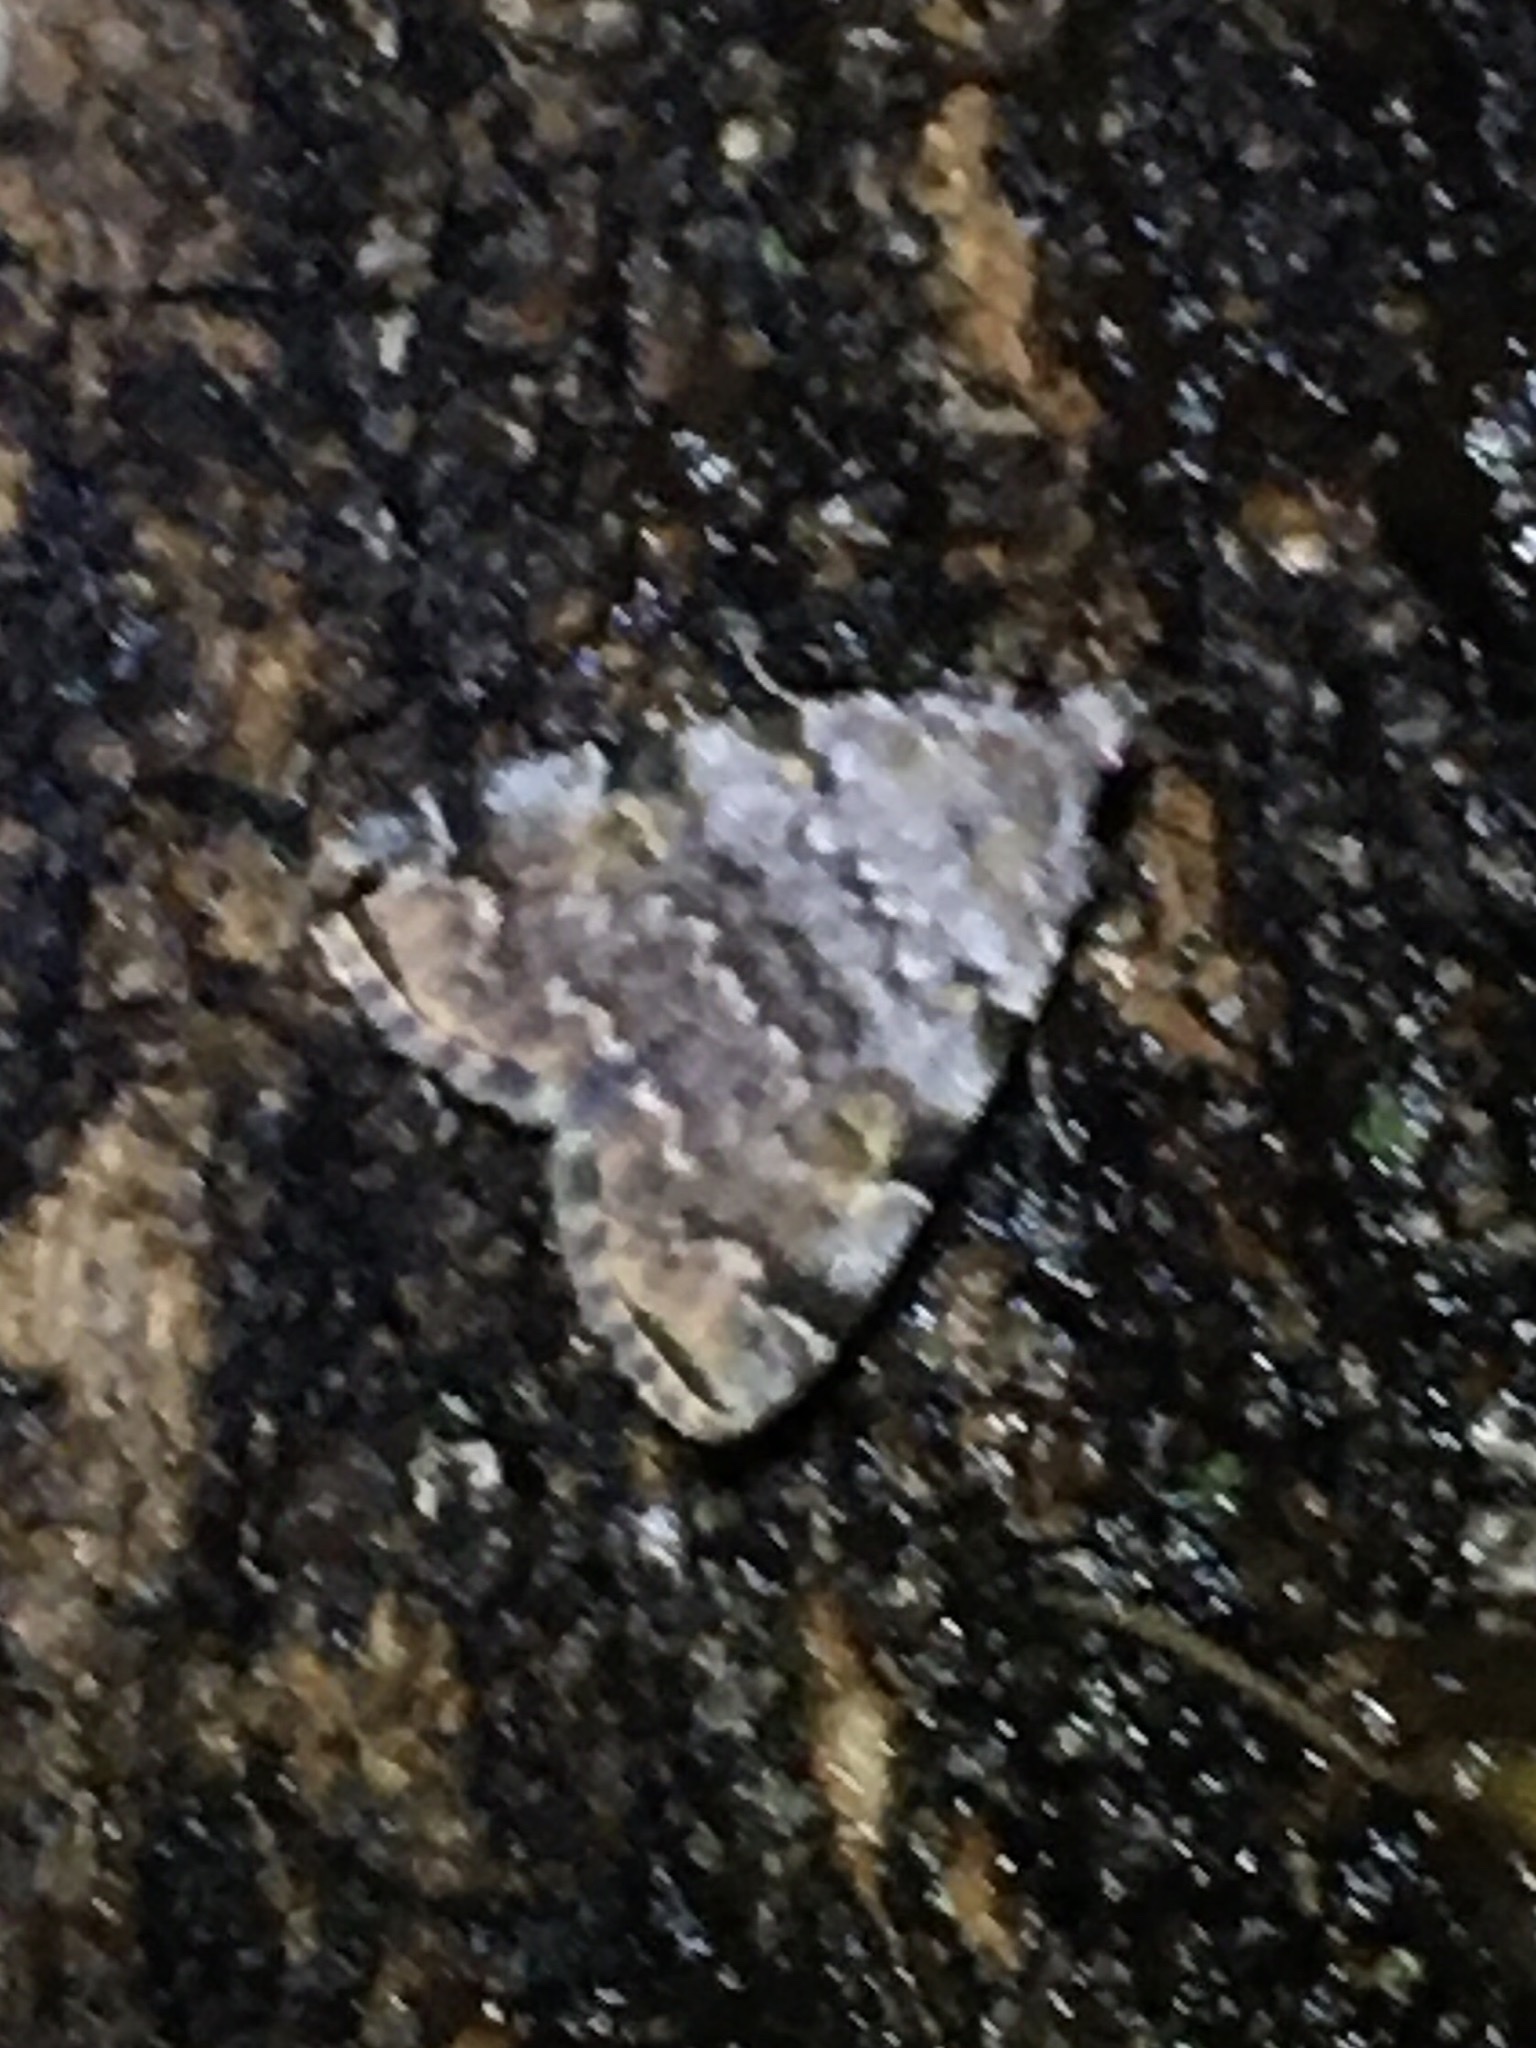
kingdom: Animalia
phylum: Arthropoda
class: Insecta
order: Lepidoptera
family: Erebidae
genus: Idia
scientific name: Idia americalis
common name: American idia moth
